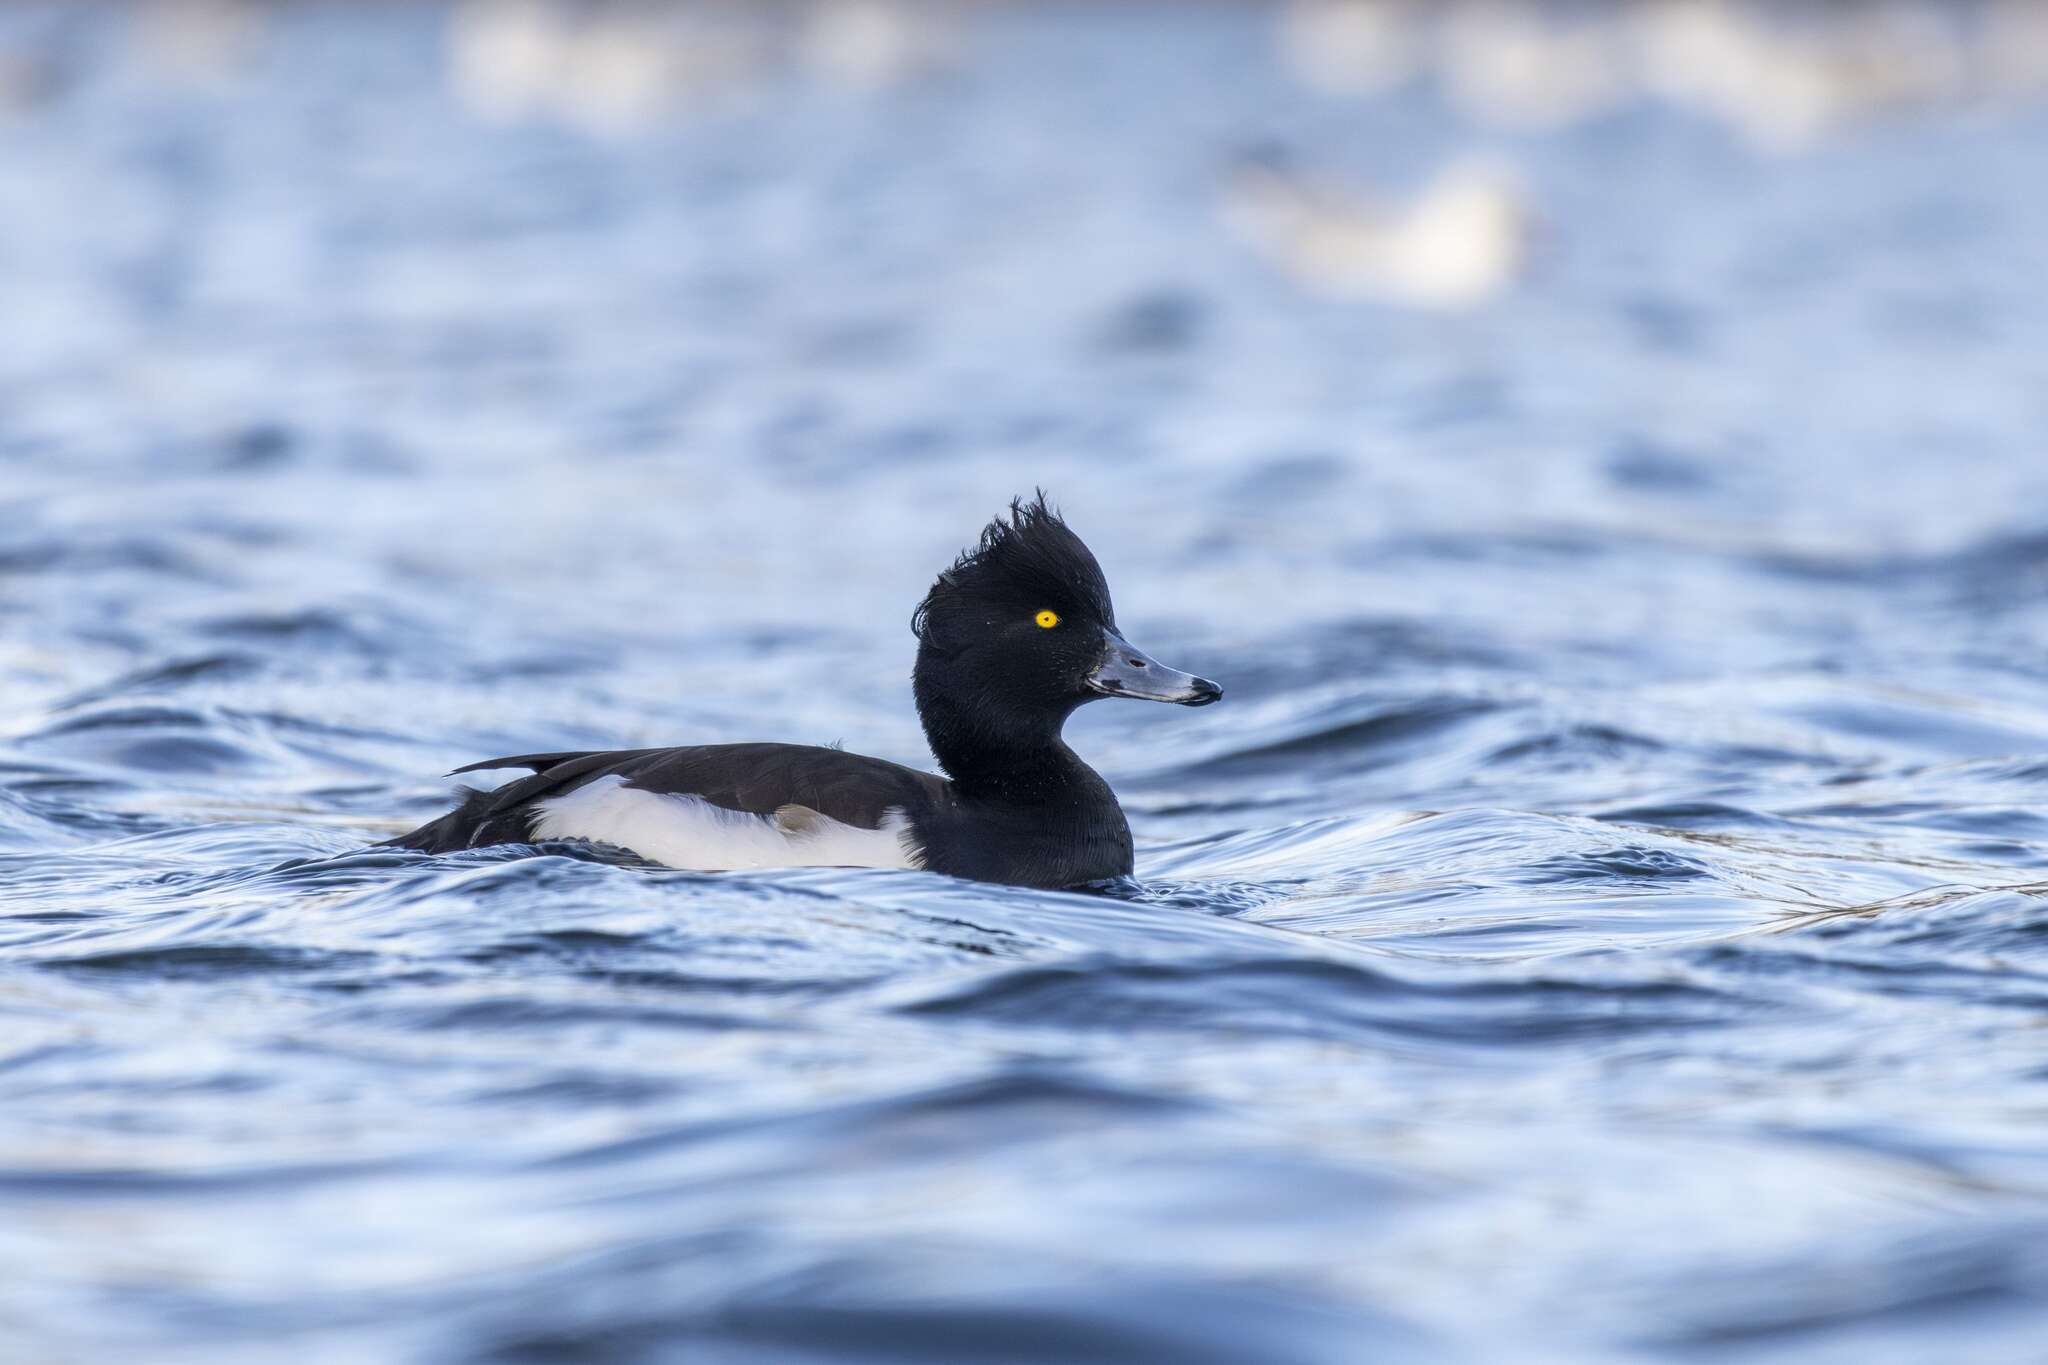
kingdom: Animalia
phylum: Chordata
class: Aves
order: Anseriformes
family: Anatidae
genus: Aythya
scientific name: Aythya fuligula
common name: Tufted duck
